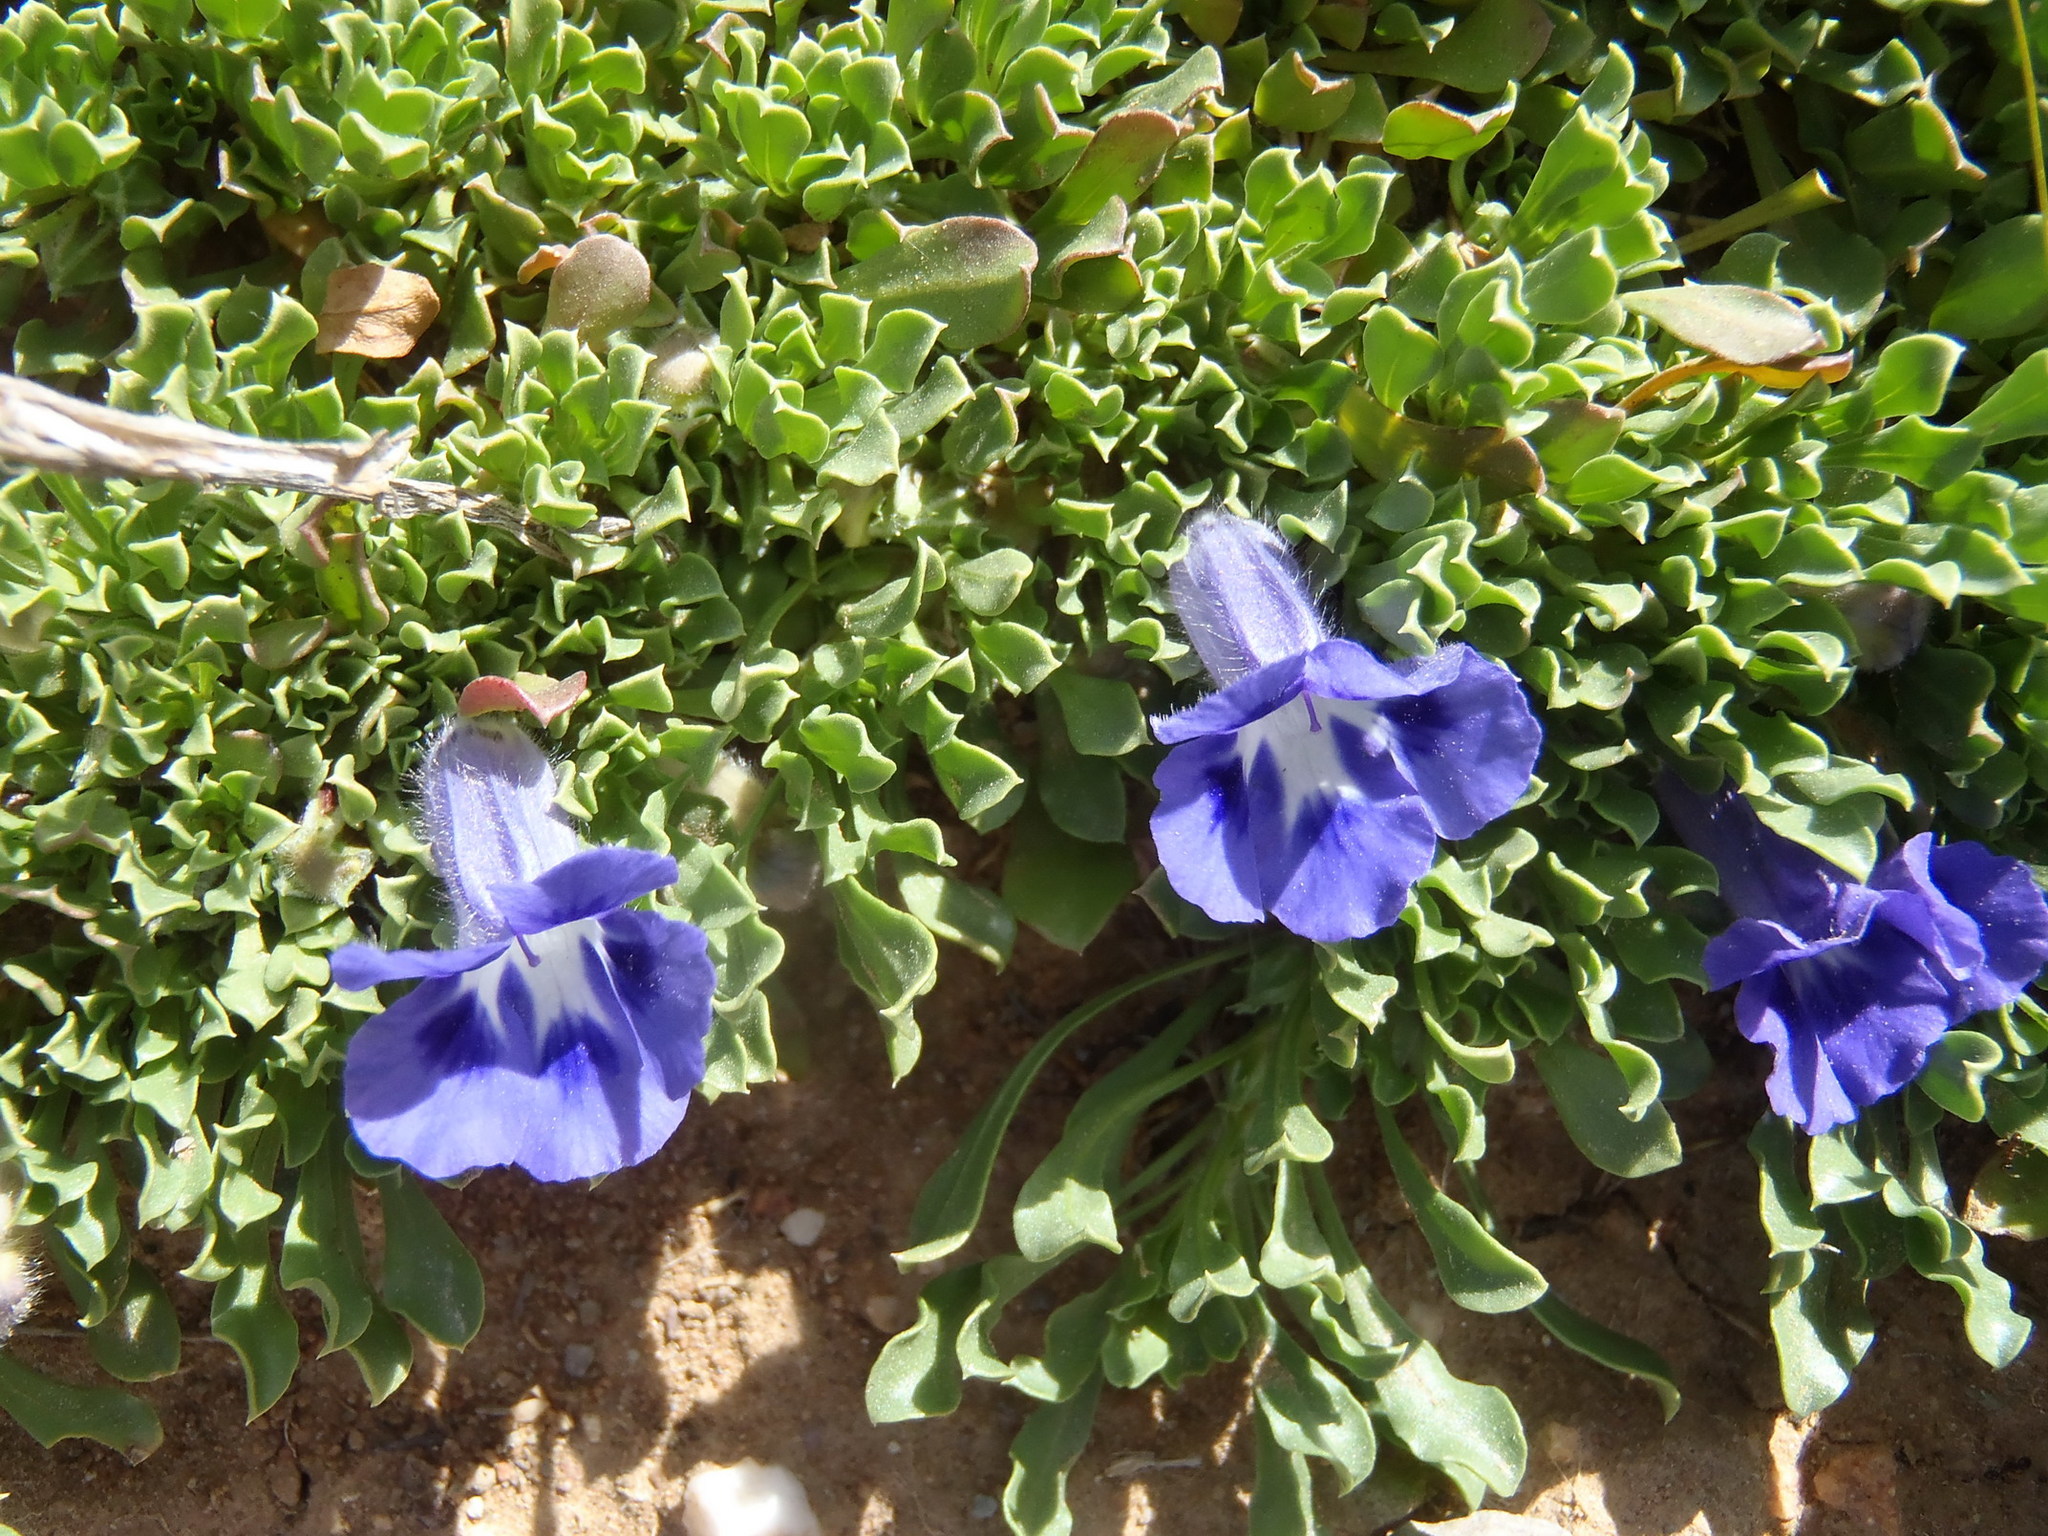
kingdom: Plantae
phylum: Tracheophyta
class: Magnoliopsida
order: Lamiales
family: Scrophulariaceae
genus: Aptosimum
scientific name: Aptosimum indivisum
